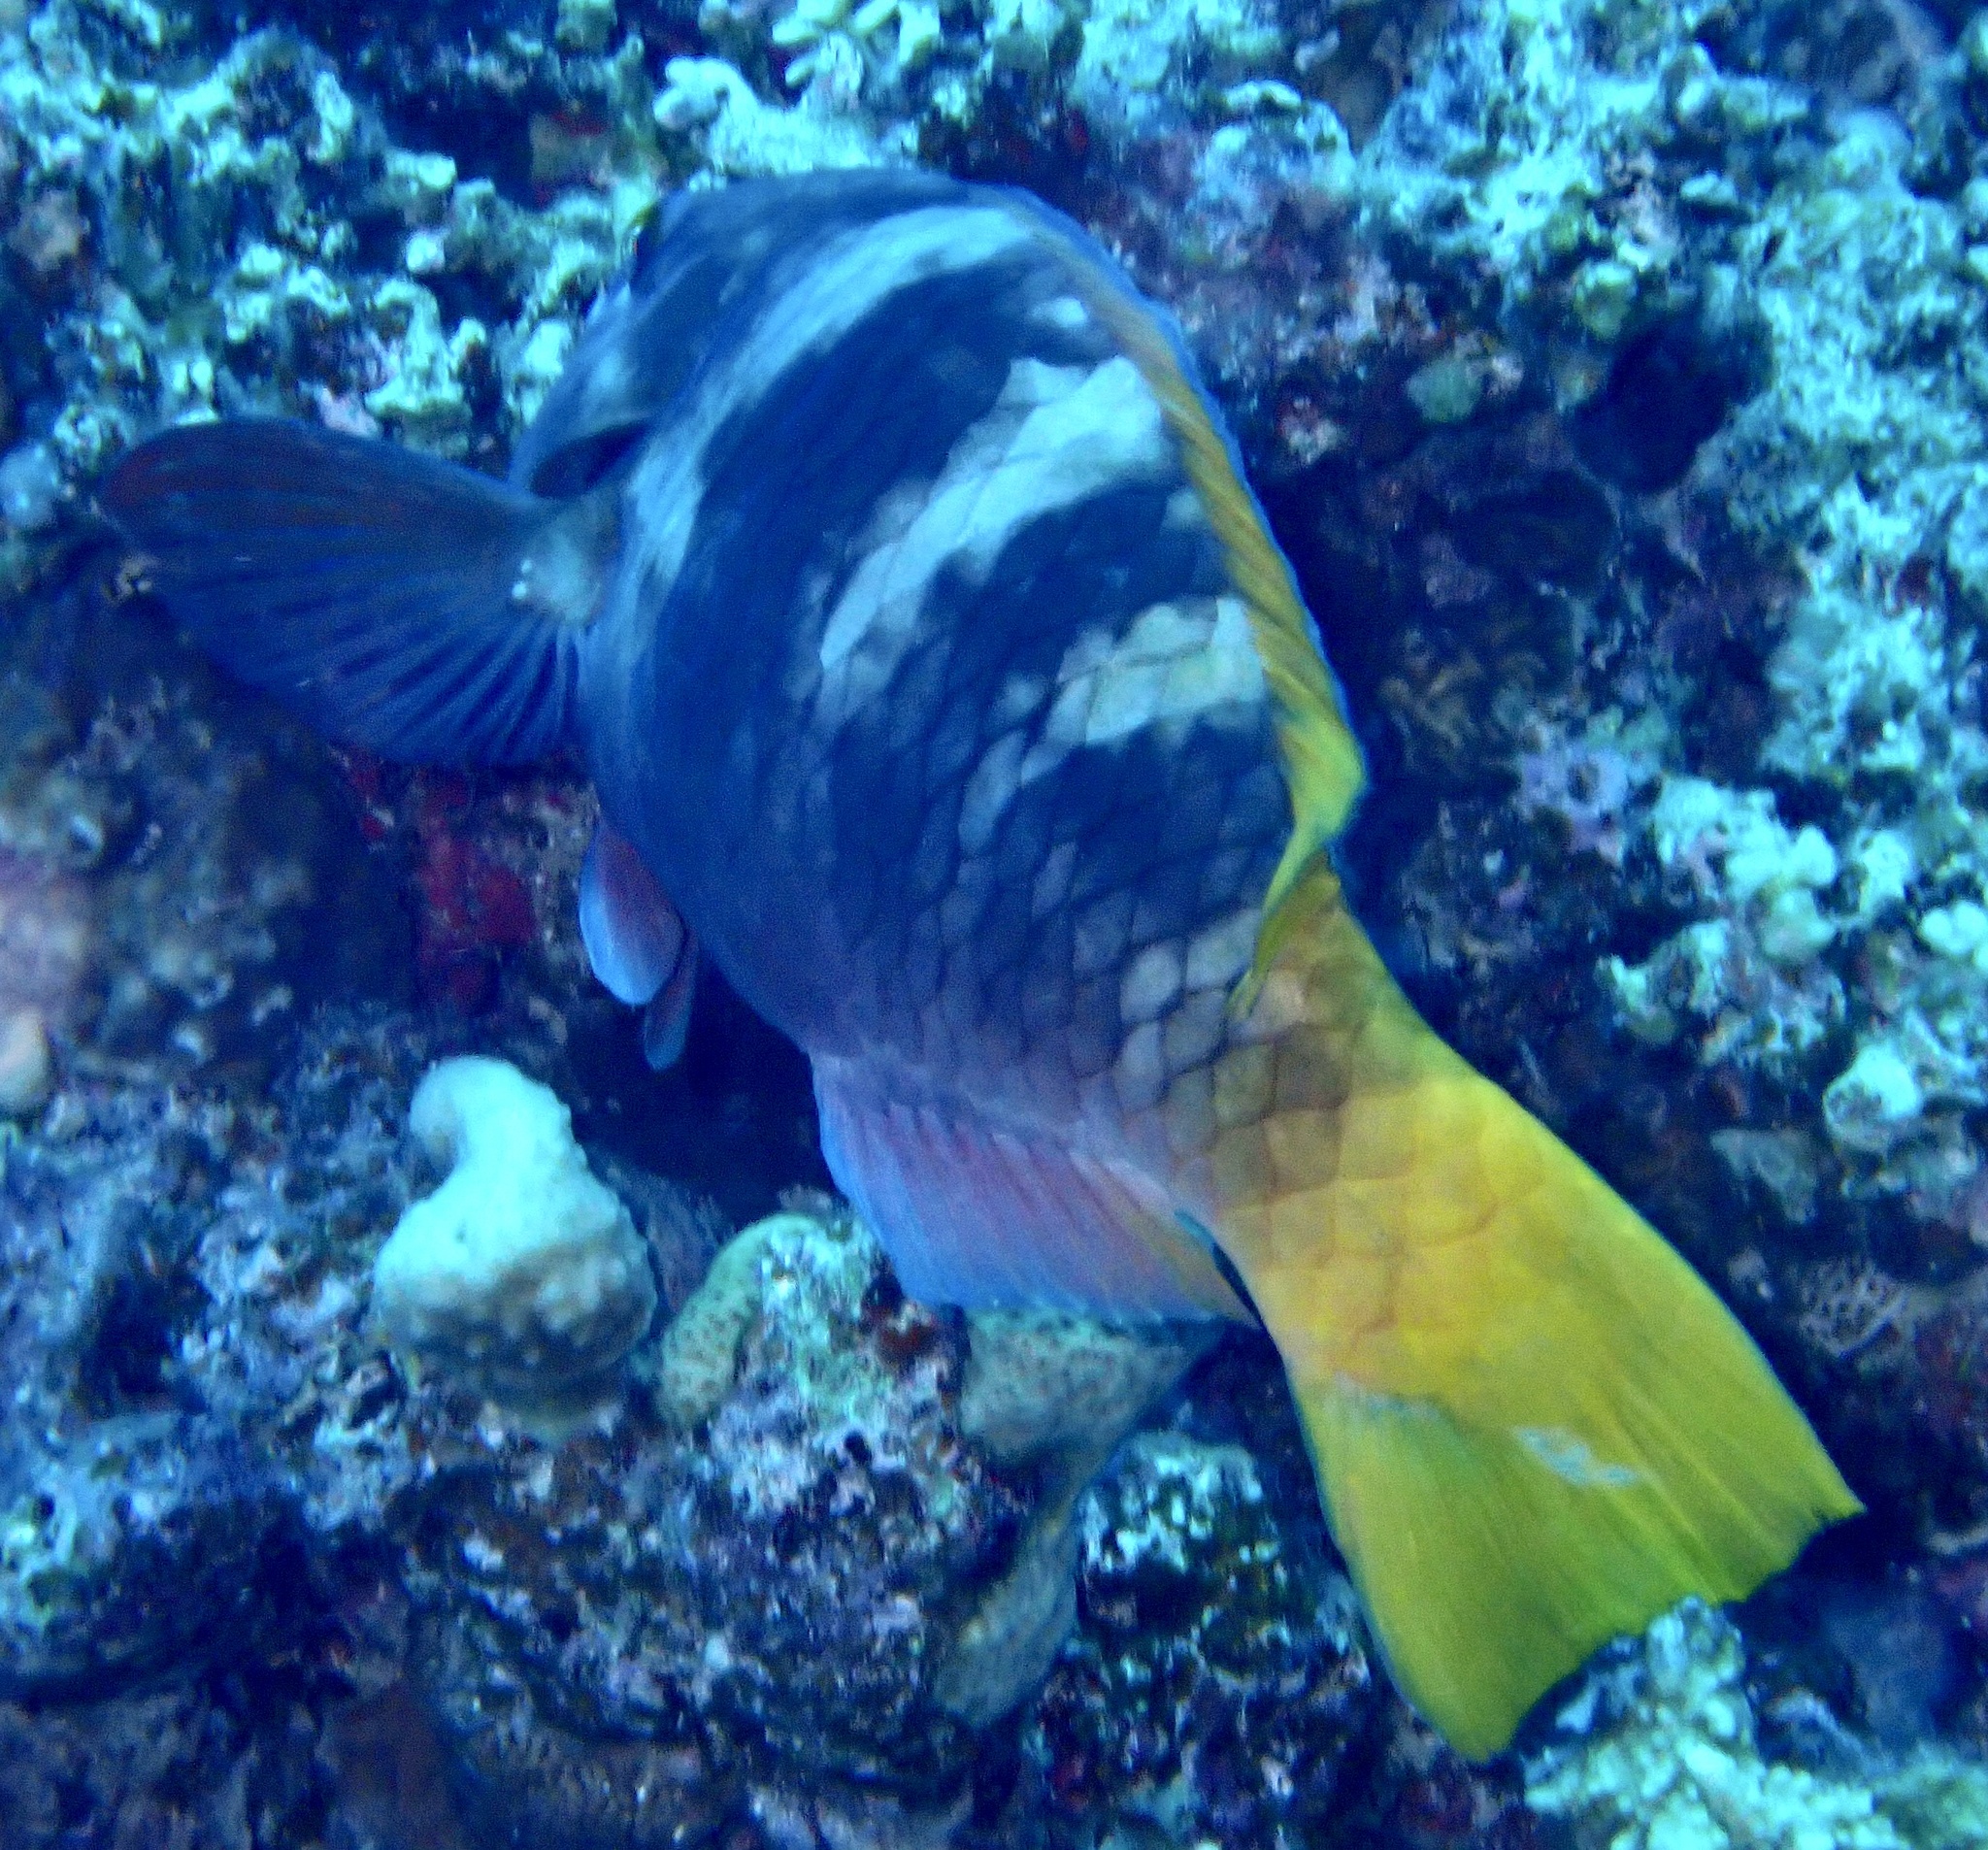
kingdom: Animalia
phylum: Chordata
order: Perciformes
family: Scaridae
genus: Scarus
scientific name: Scarus ferrugineus
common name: Rusty parrotfish
